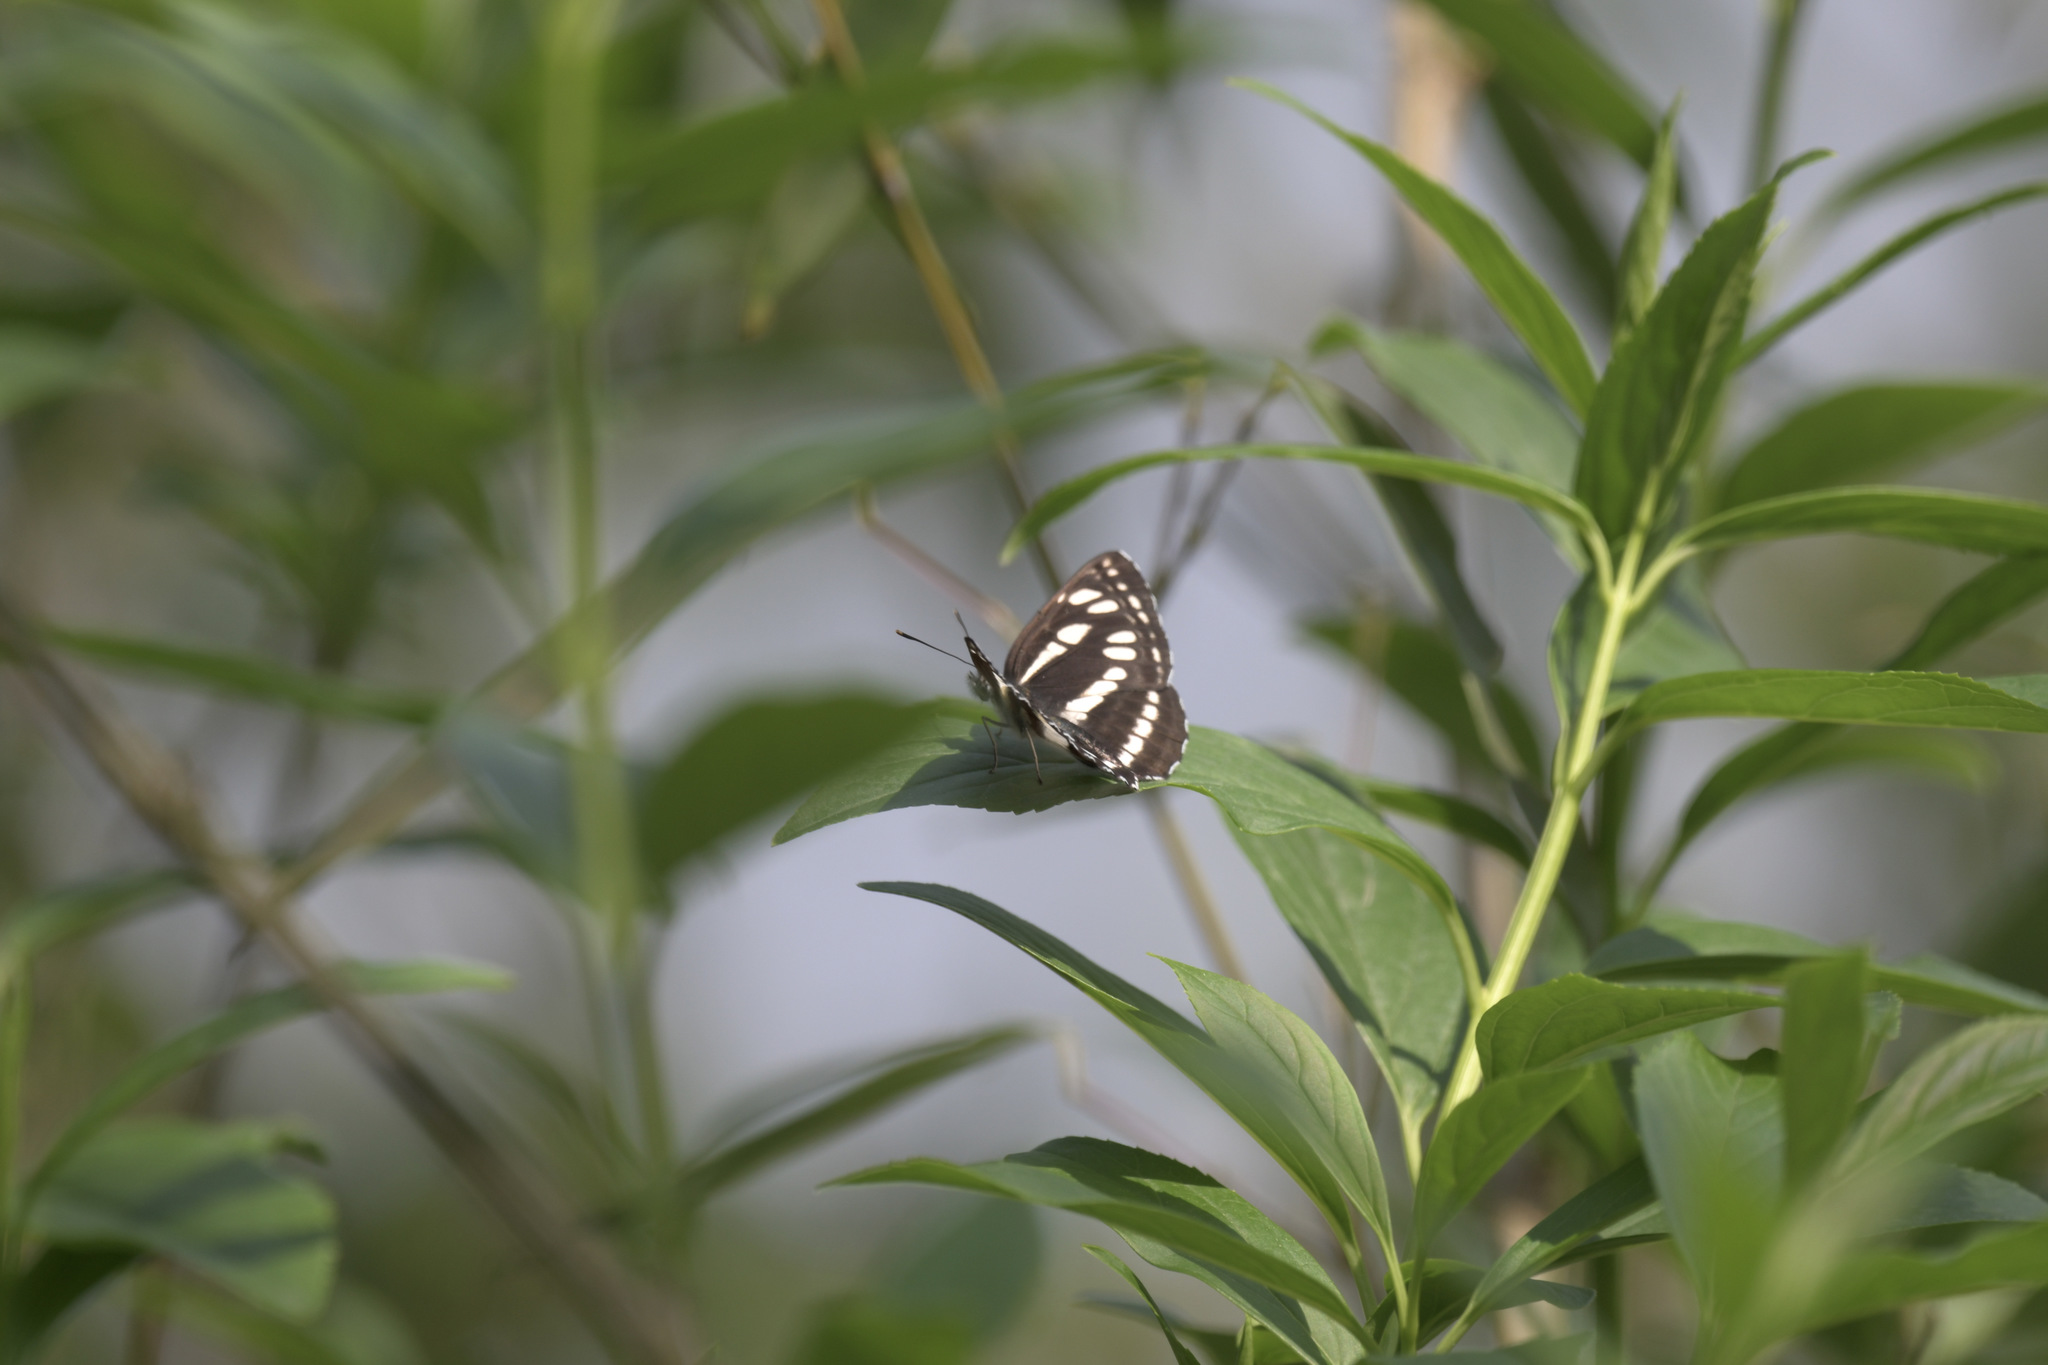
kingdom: Animalia
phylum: Arthropoda
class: Insecta
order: Lepidoptera
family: Nymphalidae
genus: Neptis
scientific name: Neptis hylas
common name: Common sailer
